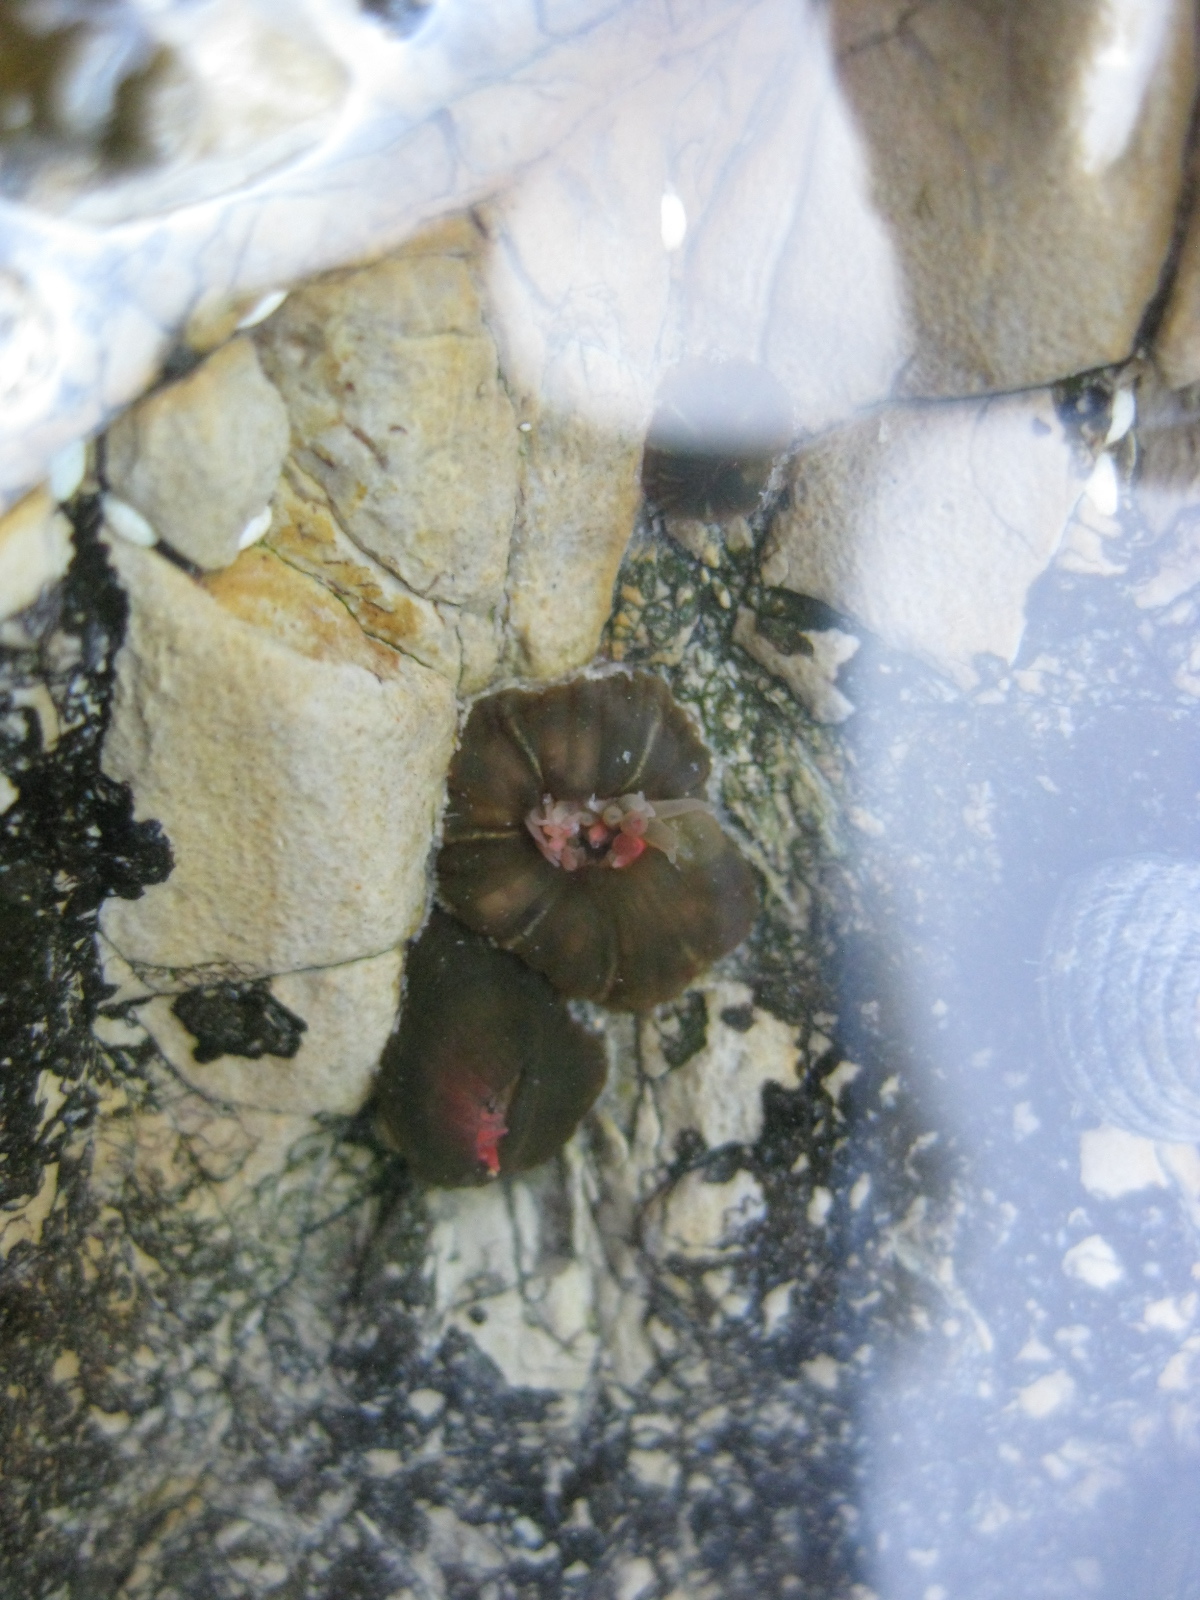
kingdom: Animalia
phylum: Cnidaria
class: Anthozoa
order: Actiniaria
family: Actiniidae
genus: Isactinia
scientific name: Isactinia olivacea
